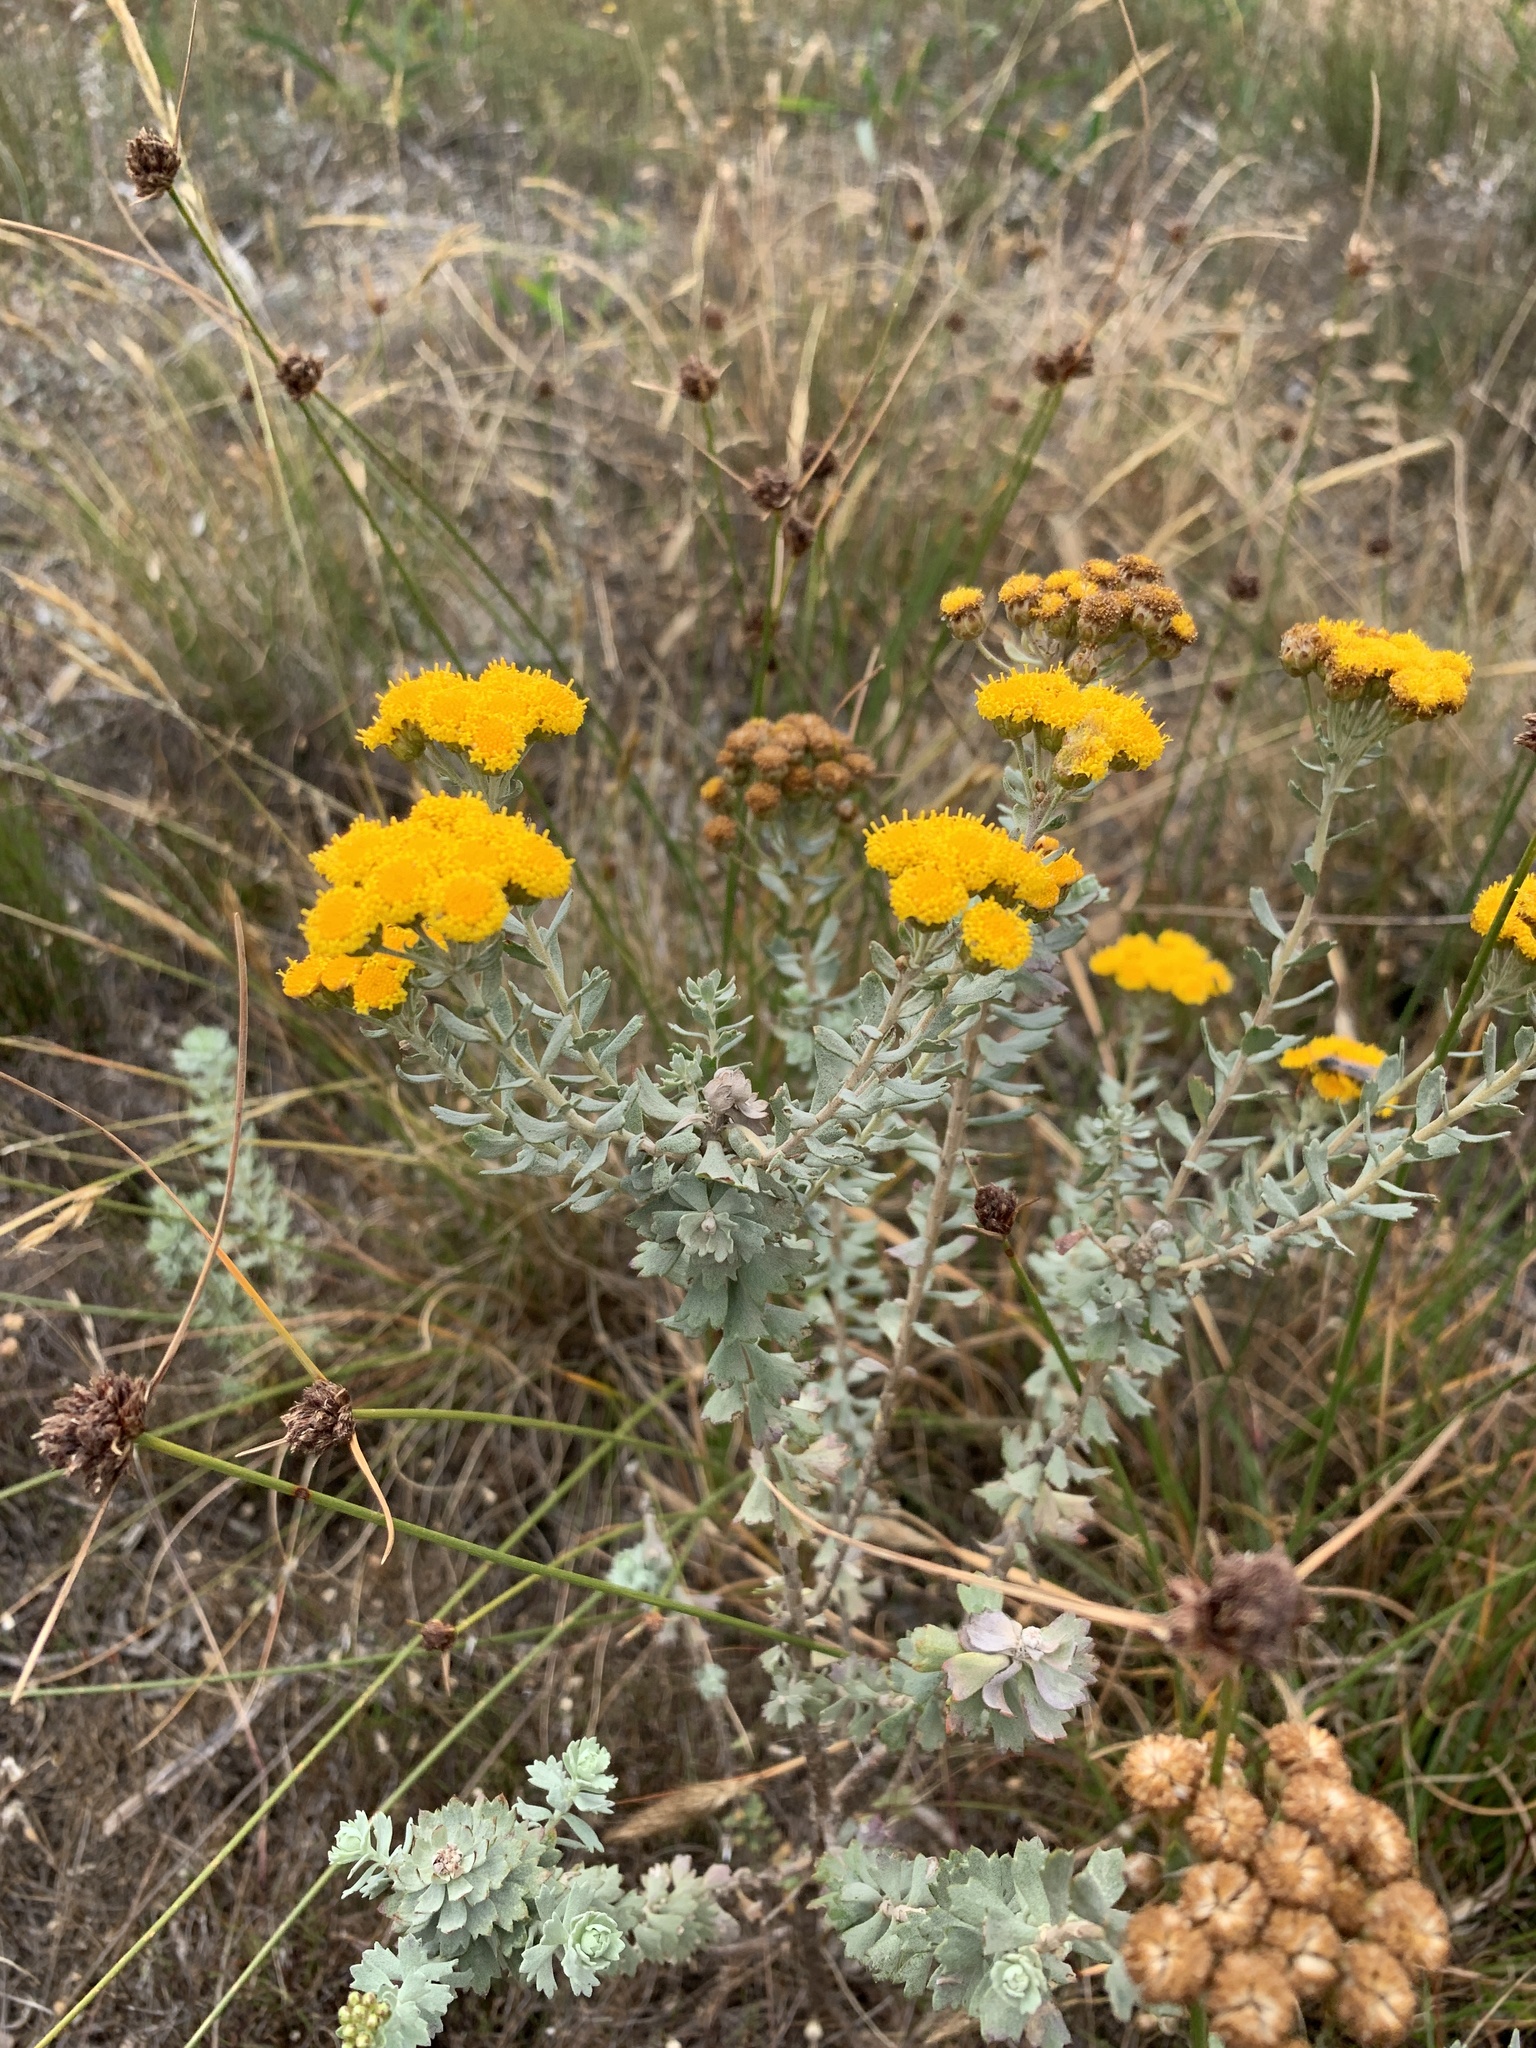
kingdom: Plantae
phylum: Tracheophyta
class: Magnoliopsida
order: Asterales
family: Asteraceae
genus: Athanasia
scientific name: Athanasia trifurcata
